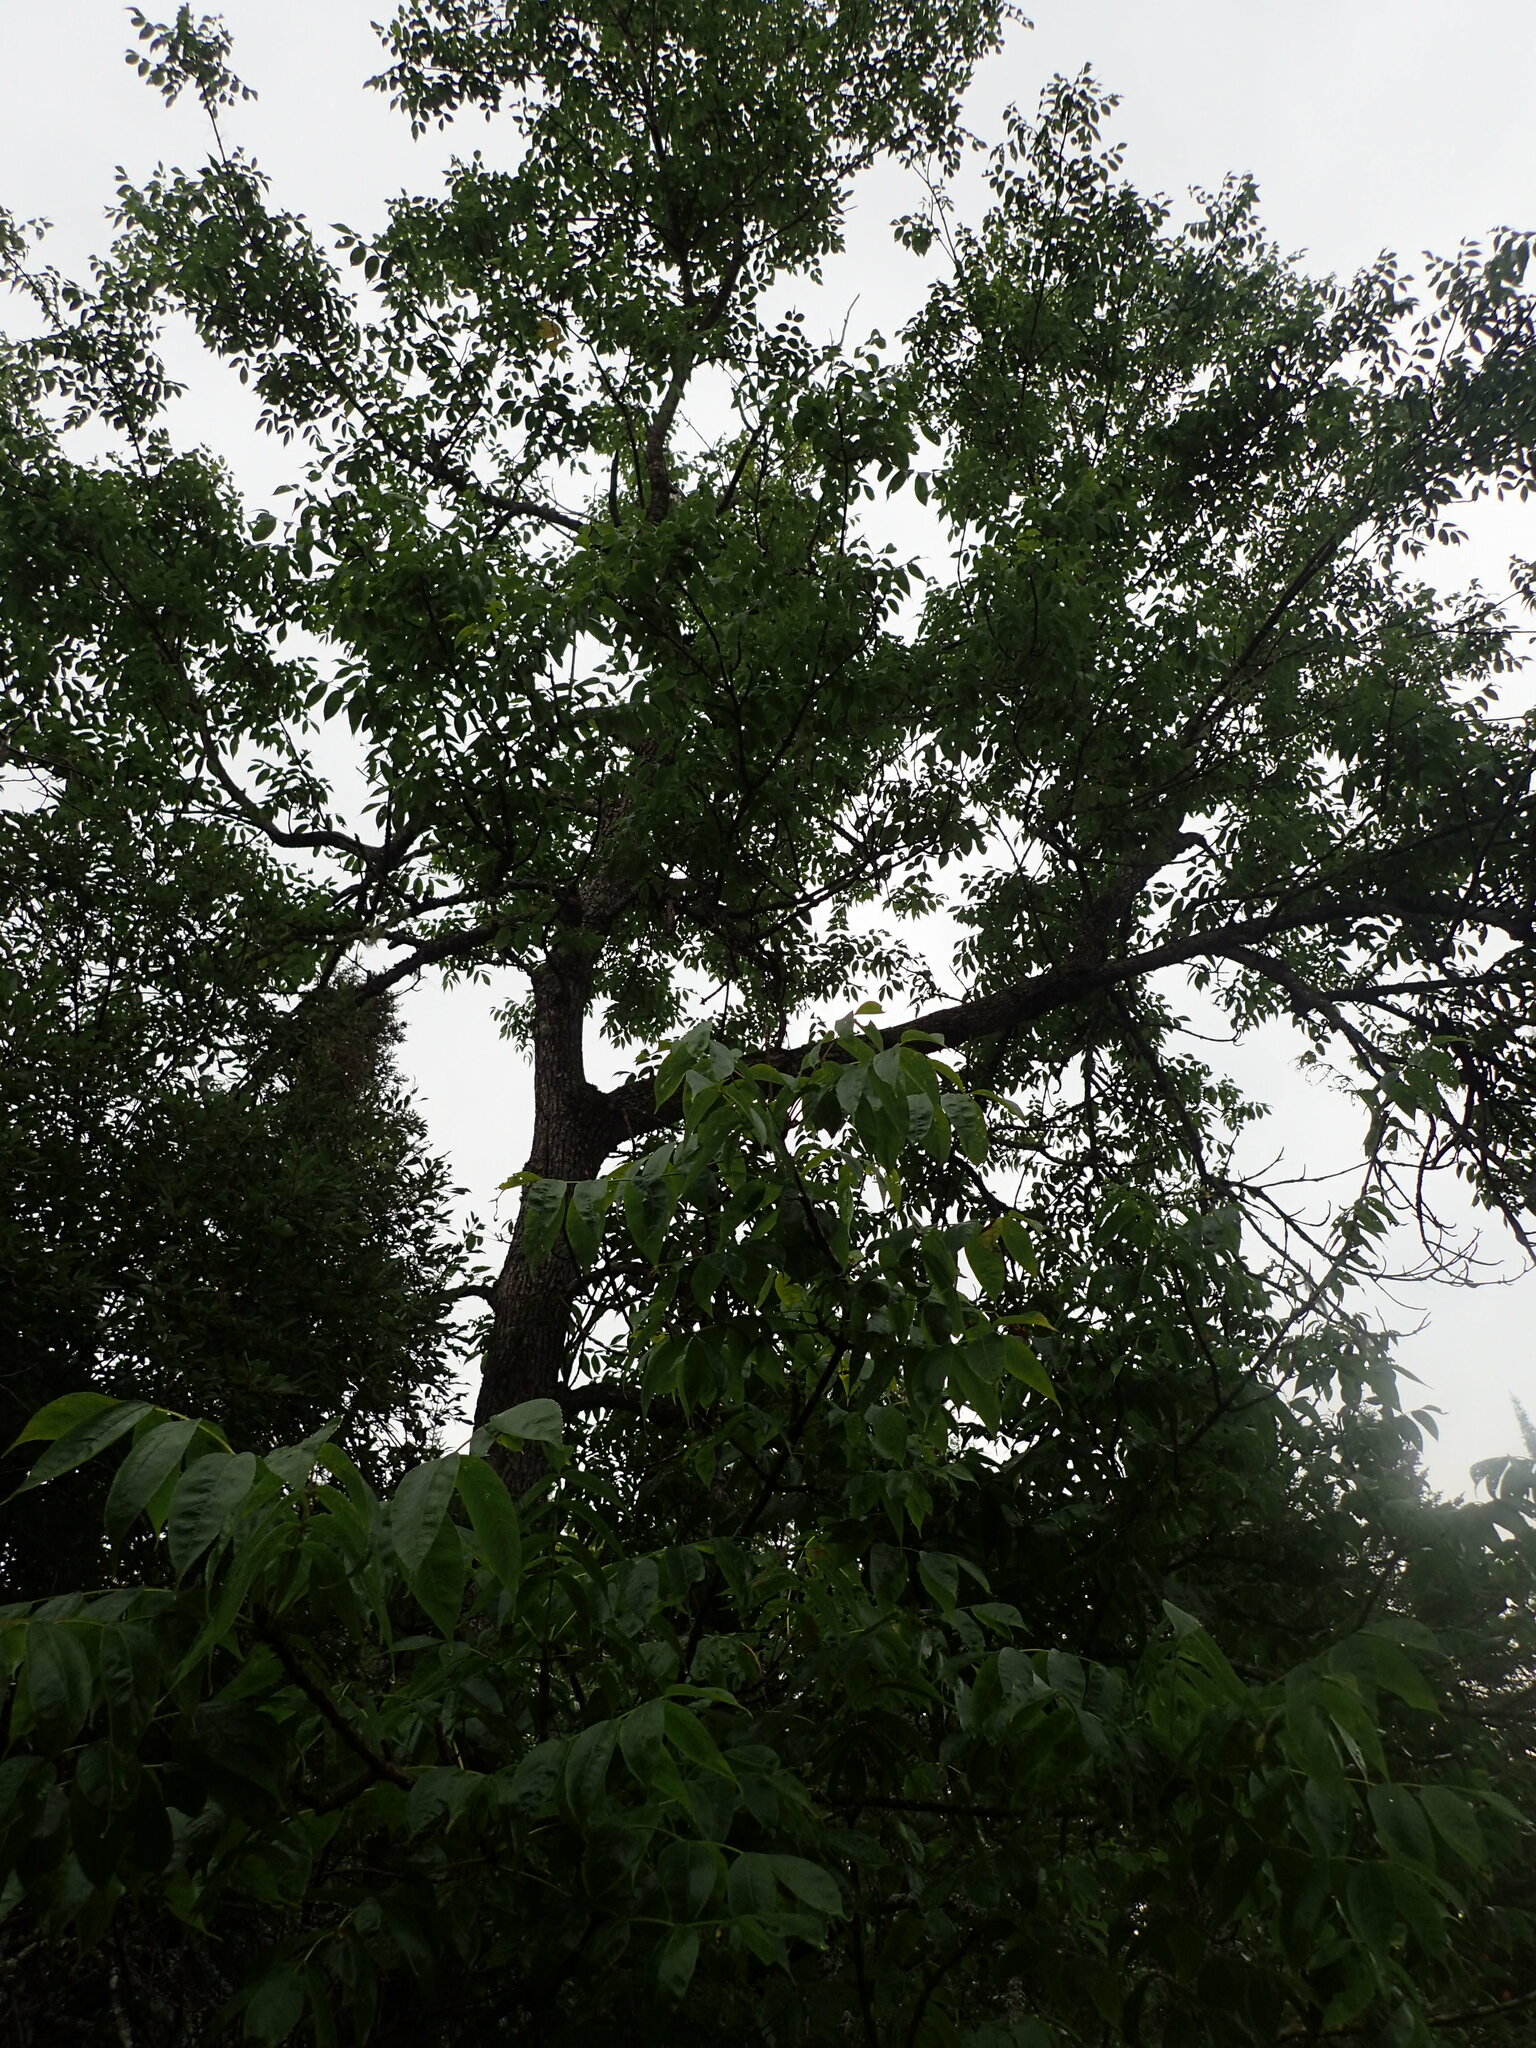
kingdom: Plantae
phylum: Tracheophyta
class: Magnoliopsida
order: Lamiales
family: Oleaceae
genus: Fraxinus
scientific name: Fraxinus nigra
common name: Black ash
